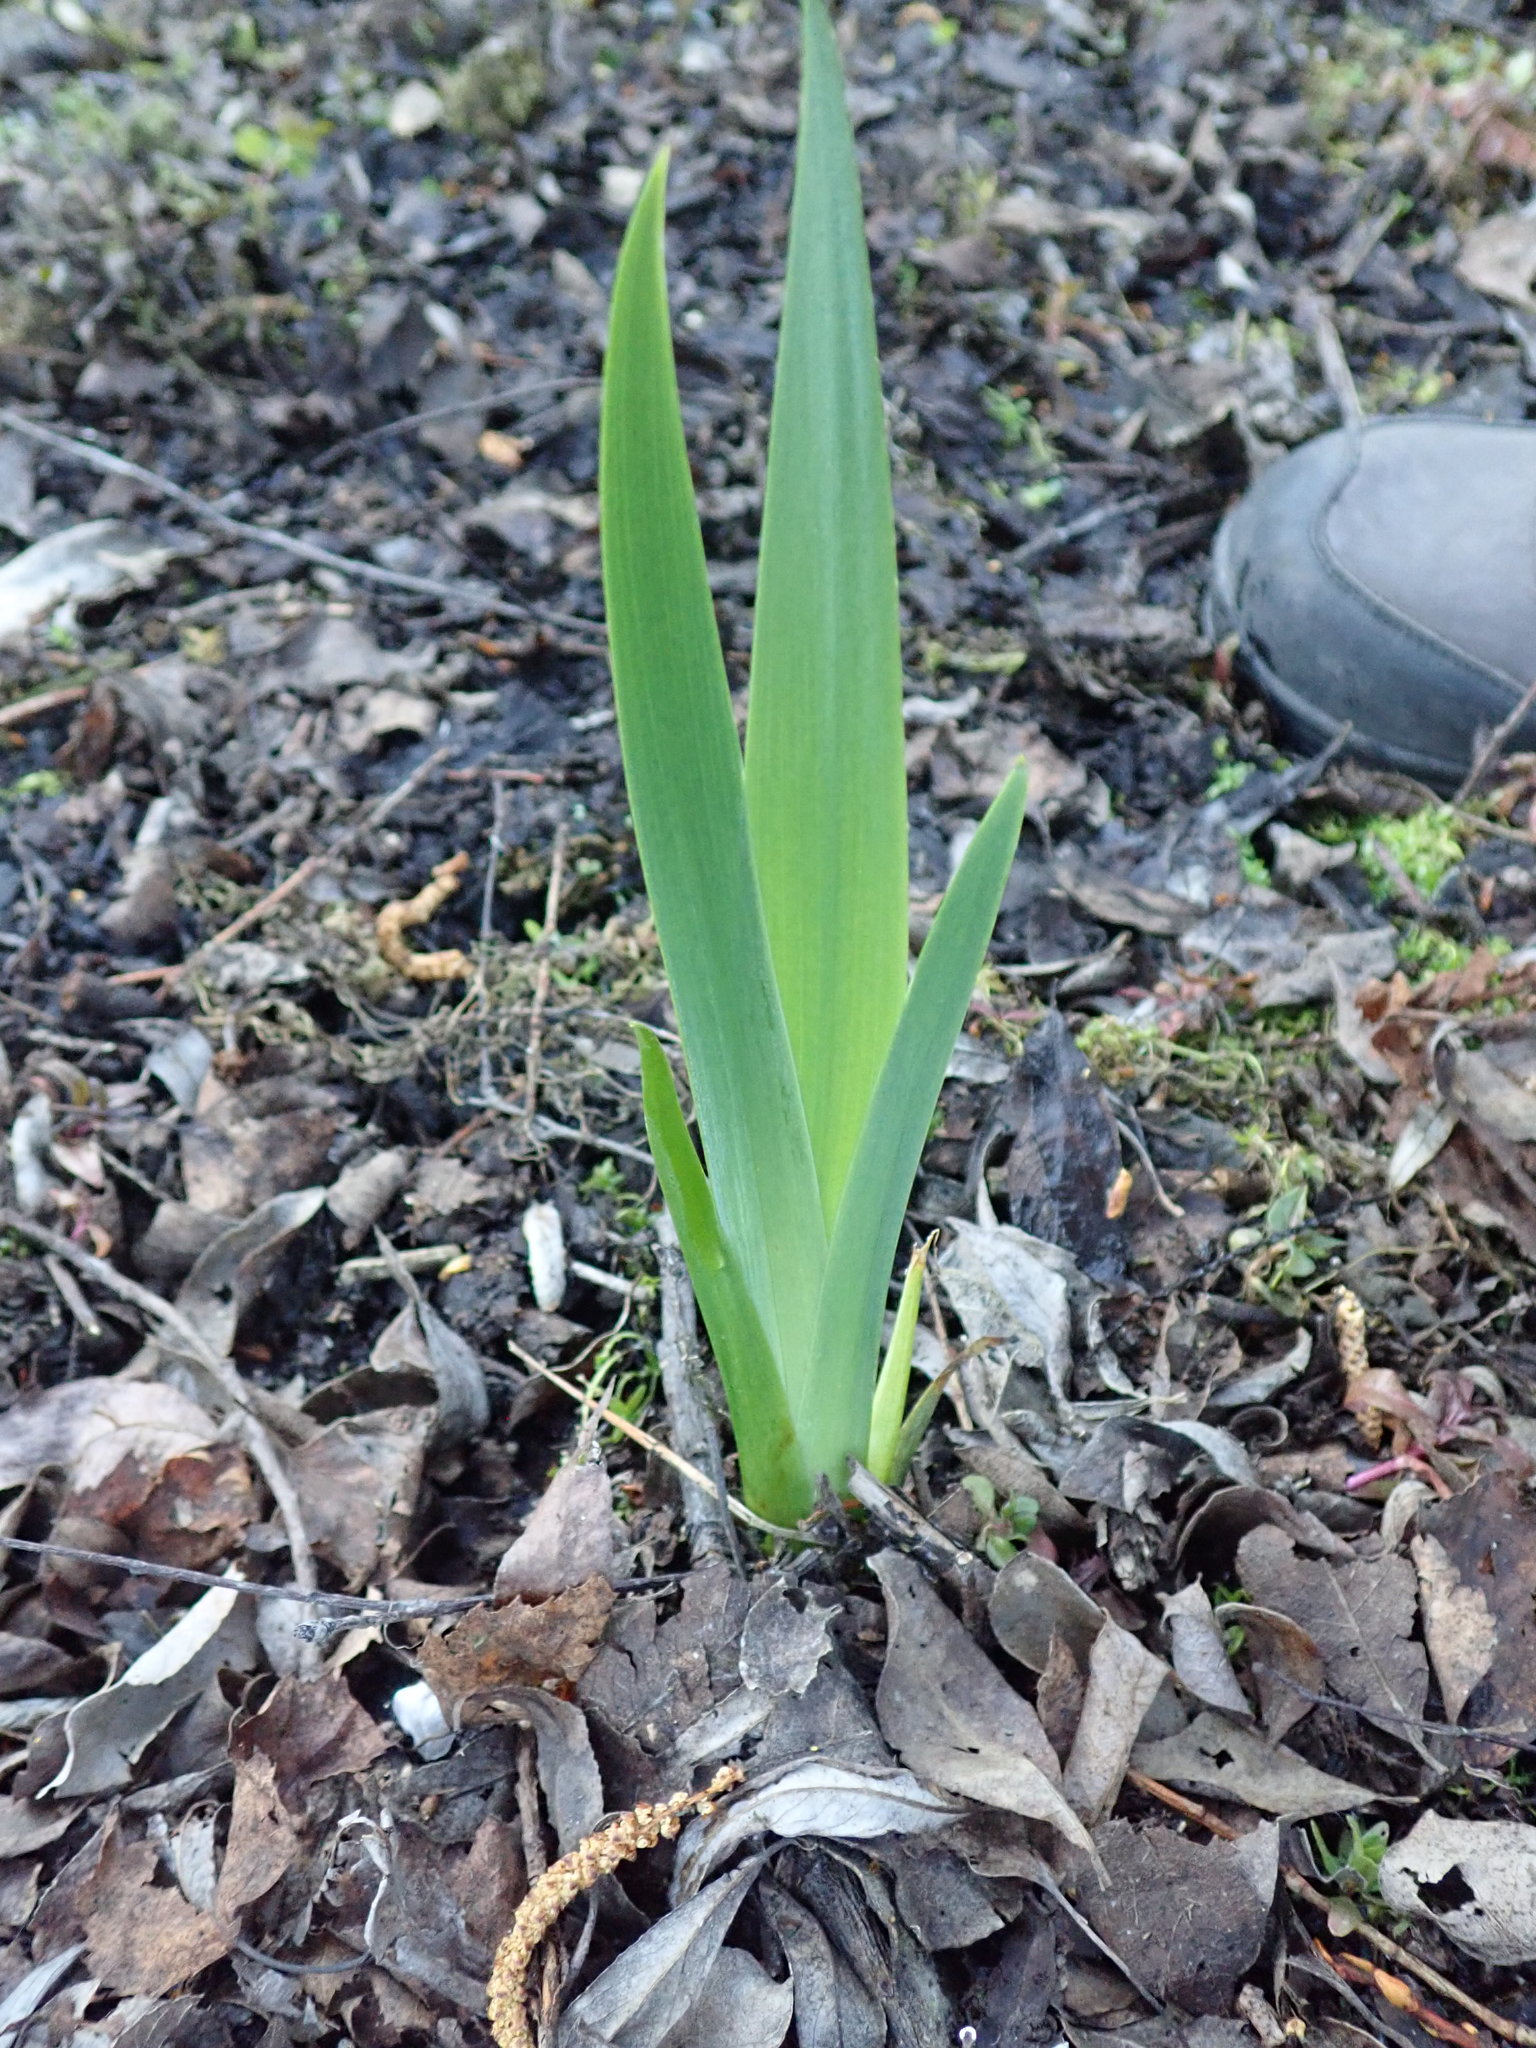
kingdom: Plantae
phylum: Tracheophyta
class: Liliopsida
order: Asparagales
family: Iridaceae
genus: Iris
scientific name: Iris pseudacorus
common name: Yellow flag
